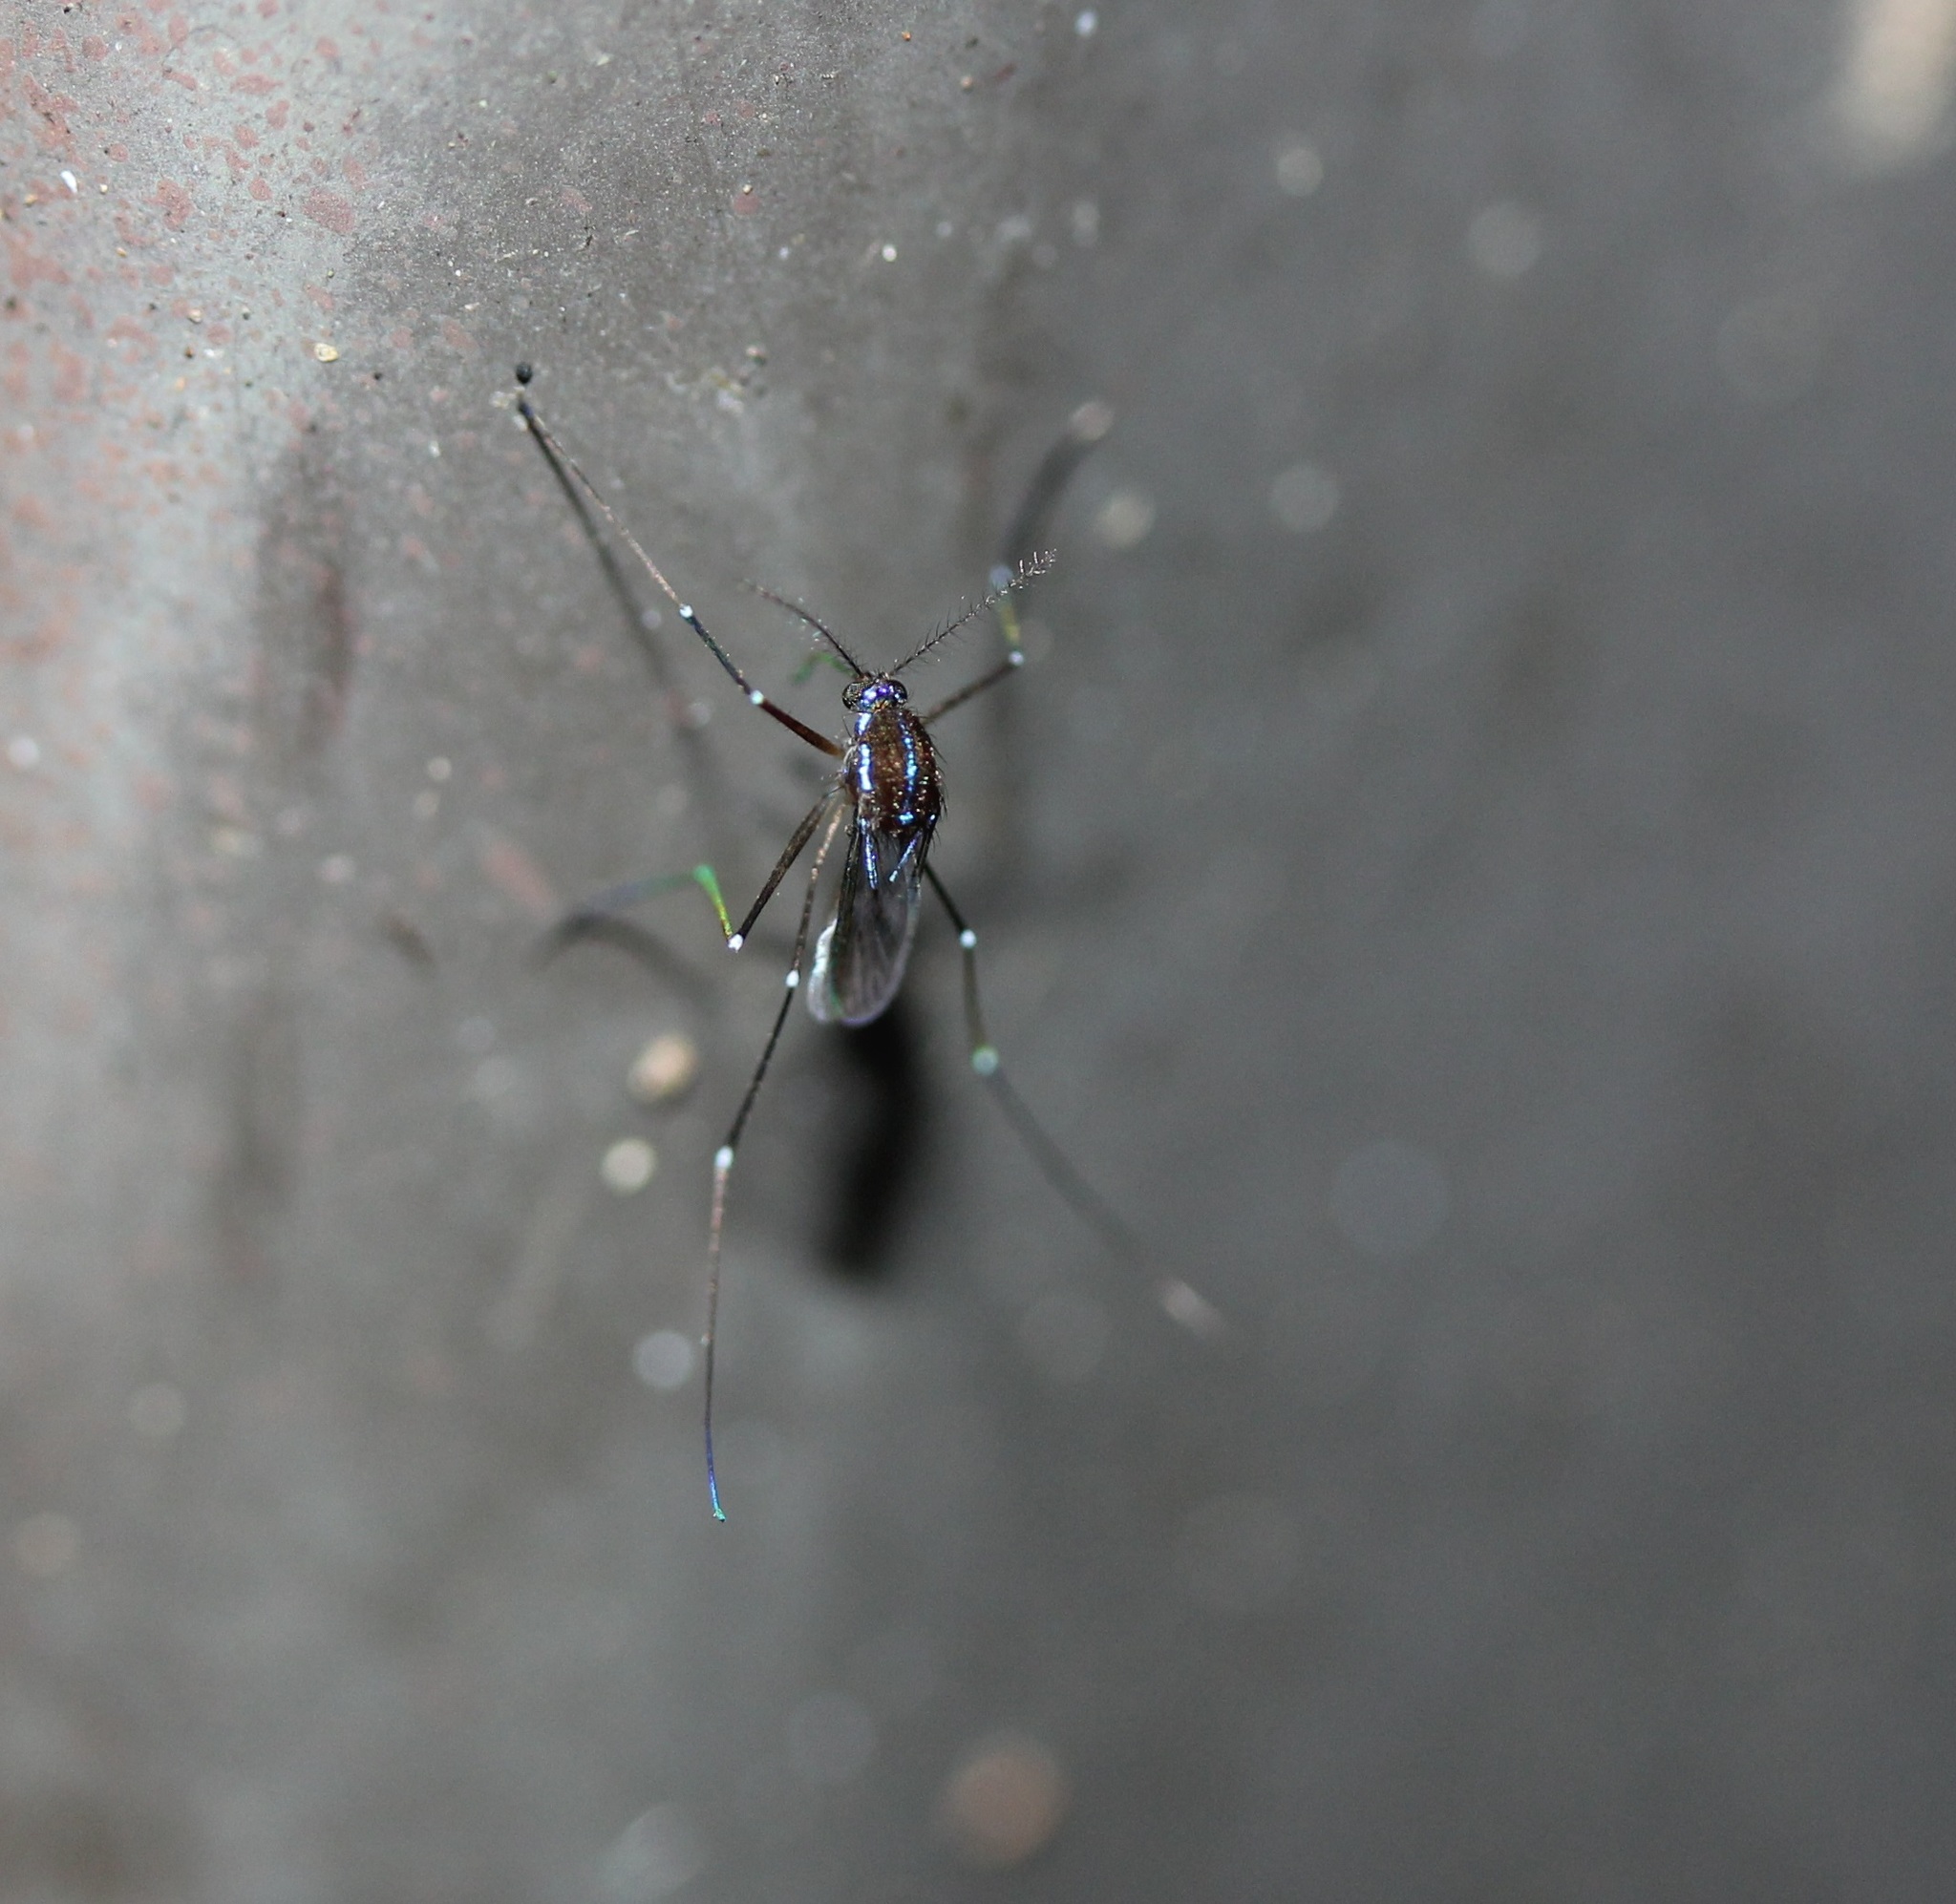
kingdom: Animalia
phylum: Arthropoda
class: Insecta
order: Diptera
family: Culicidae
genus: Uranotaenia
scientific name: Uranotaenia sapphirina
